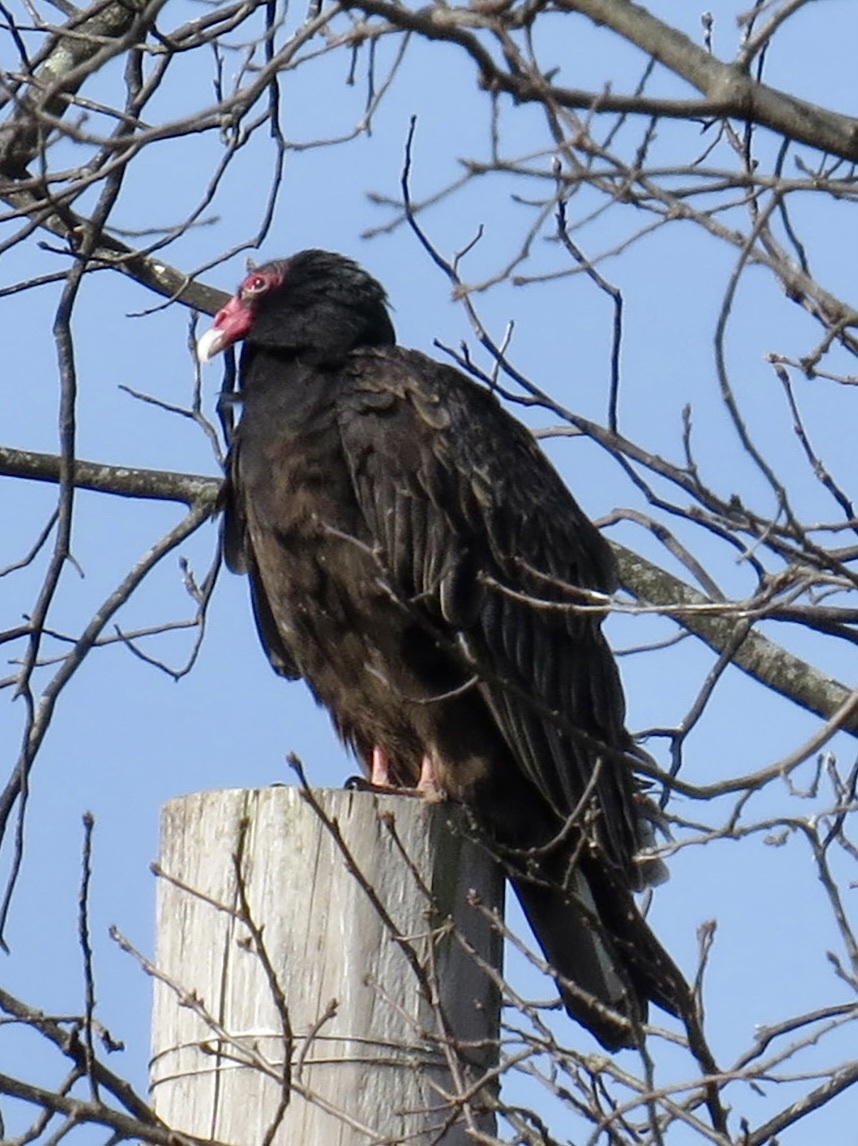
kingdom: Animalia
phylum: Chordata
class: Aves
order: Accipitriformes
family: Cathartidae
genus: Cathartes
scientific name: Cathartes aura
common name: Turkey vulture
